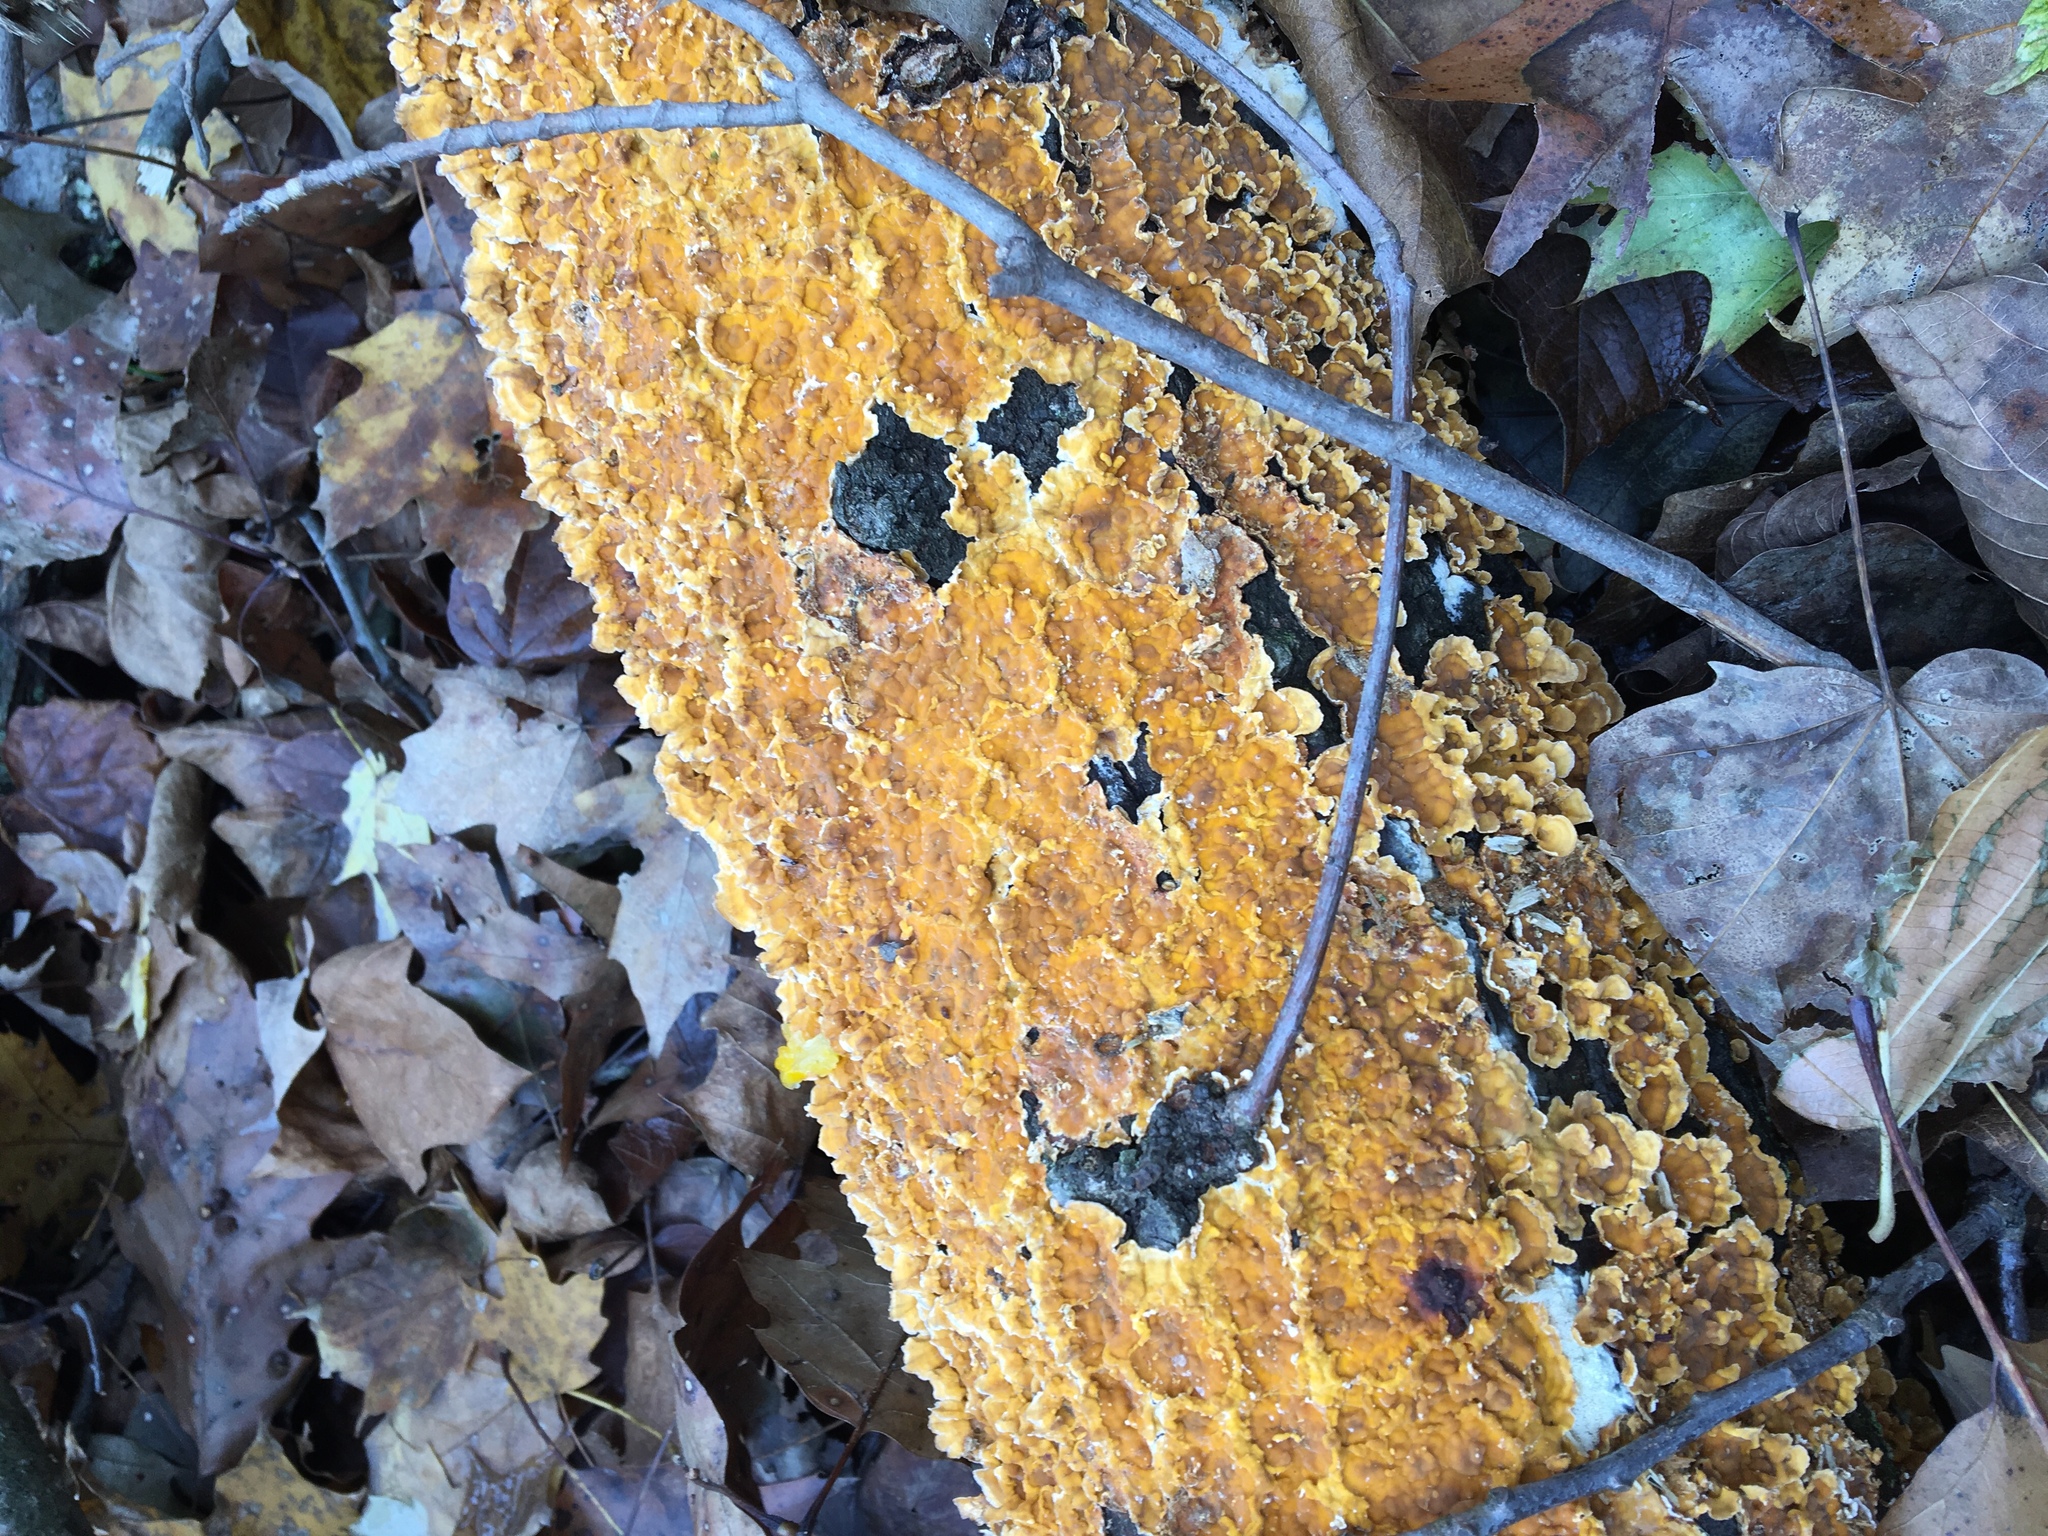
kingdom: Fungi
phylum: Basidiomycota
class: Agaricomycetes
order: Russulales
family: Stereaceae
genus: Stereum
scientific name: Stereum complicatum
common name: Crowded parchment
